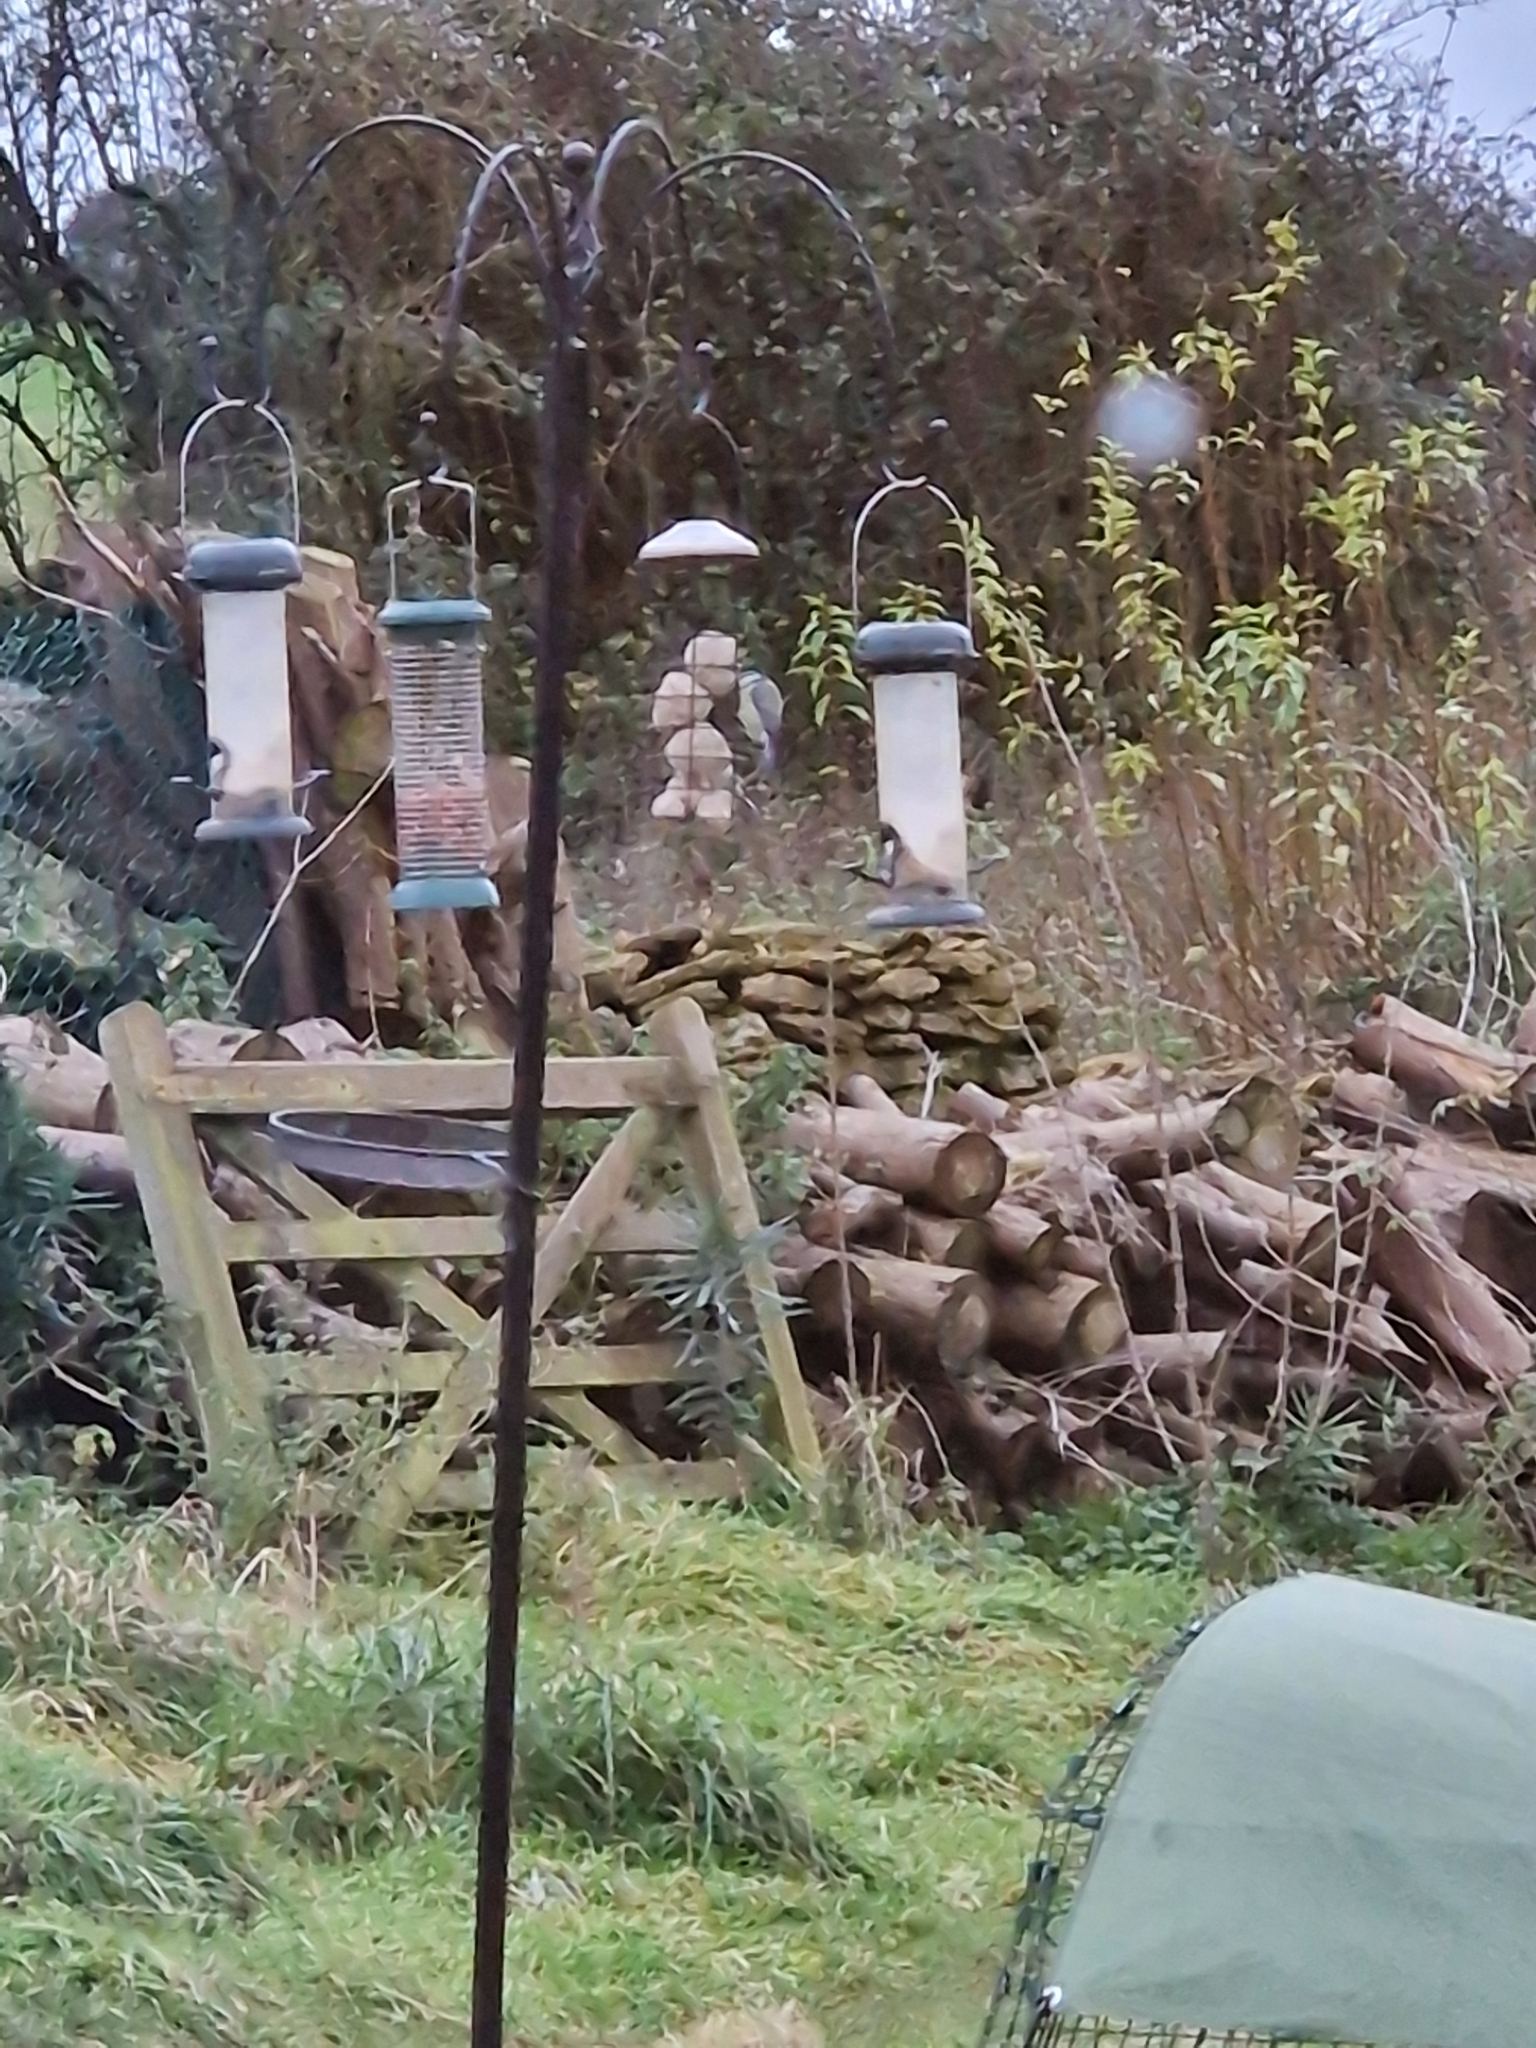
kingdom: Animalia
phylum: Chordata
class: Aves
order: Passeriformes
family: Paridae
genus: Cyanistes
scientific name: Cyanistes caeruleus
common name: Eurasian blue tit
